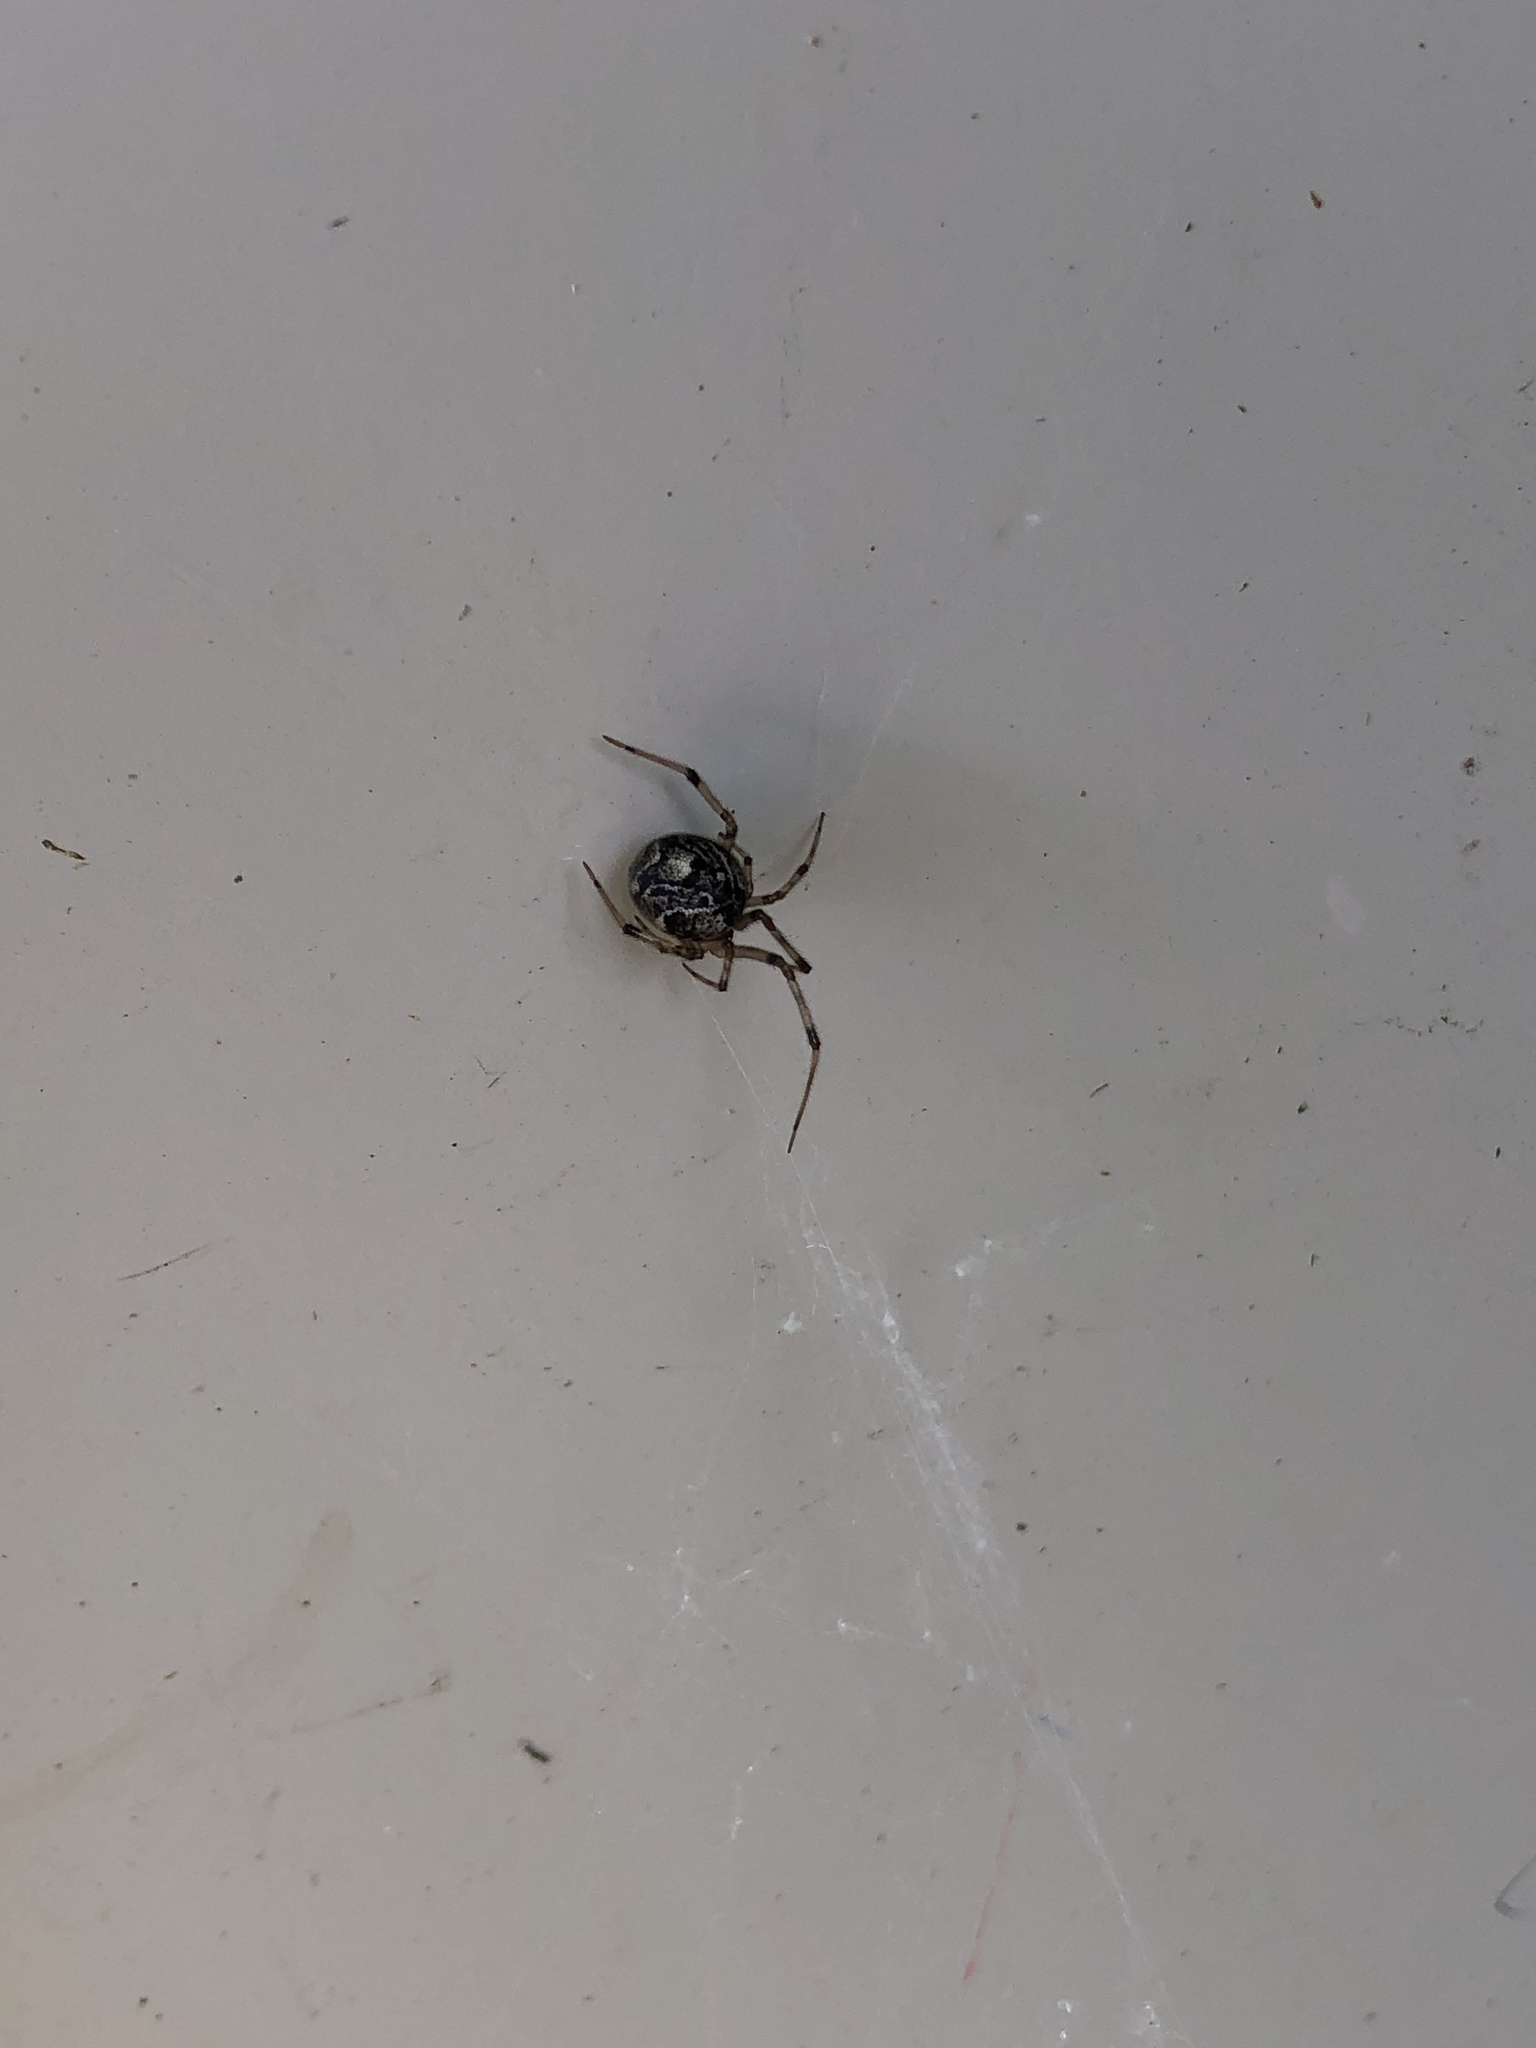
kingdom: Animalia
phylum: Arthropoda
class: Arachnida
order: Araneae
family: Theridiidae
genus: Parasteatoda
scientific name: Parasteatoda tepidariorum
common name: Common house spider
